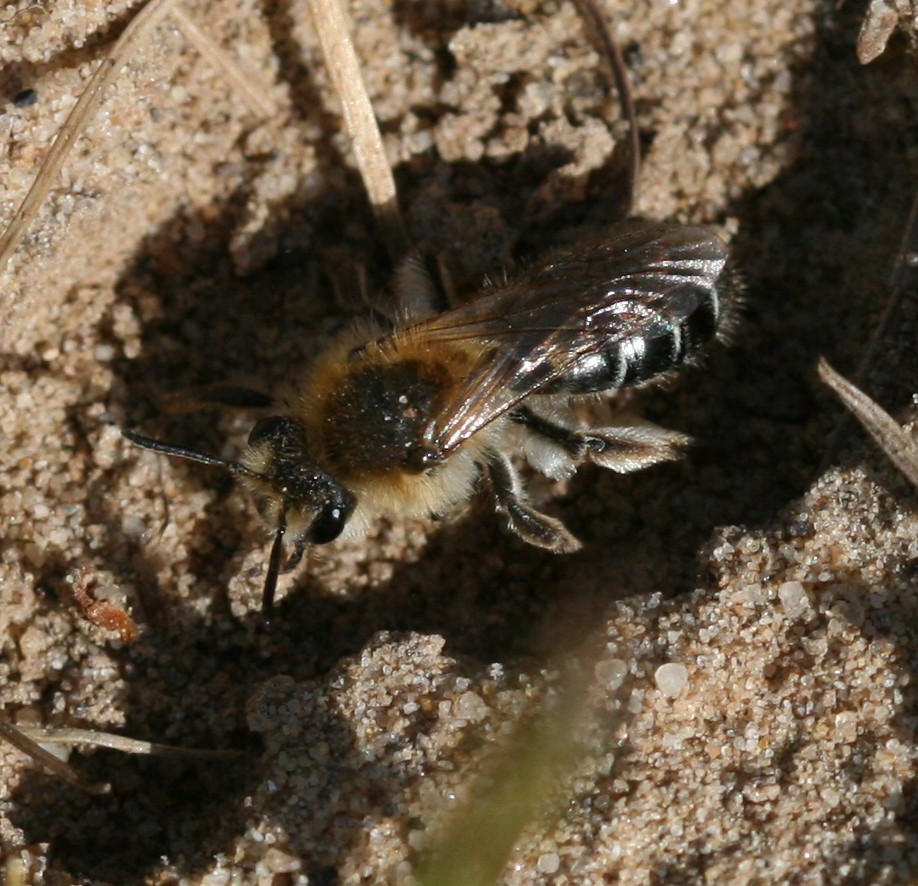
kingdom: Animalia
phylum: Arthropoda
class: Insecta
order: Hymenoptera
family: Andrenidae
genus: Andrena
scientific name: Andrena barbilabris
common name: Sandpit mining bee
